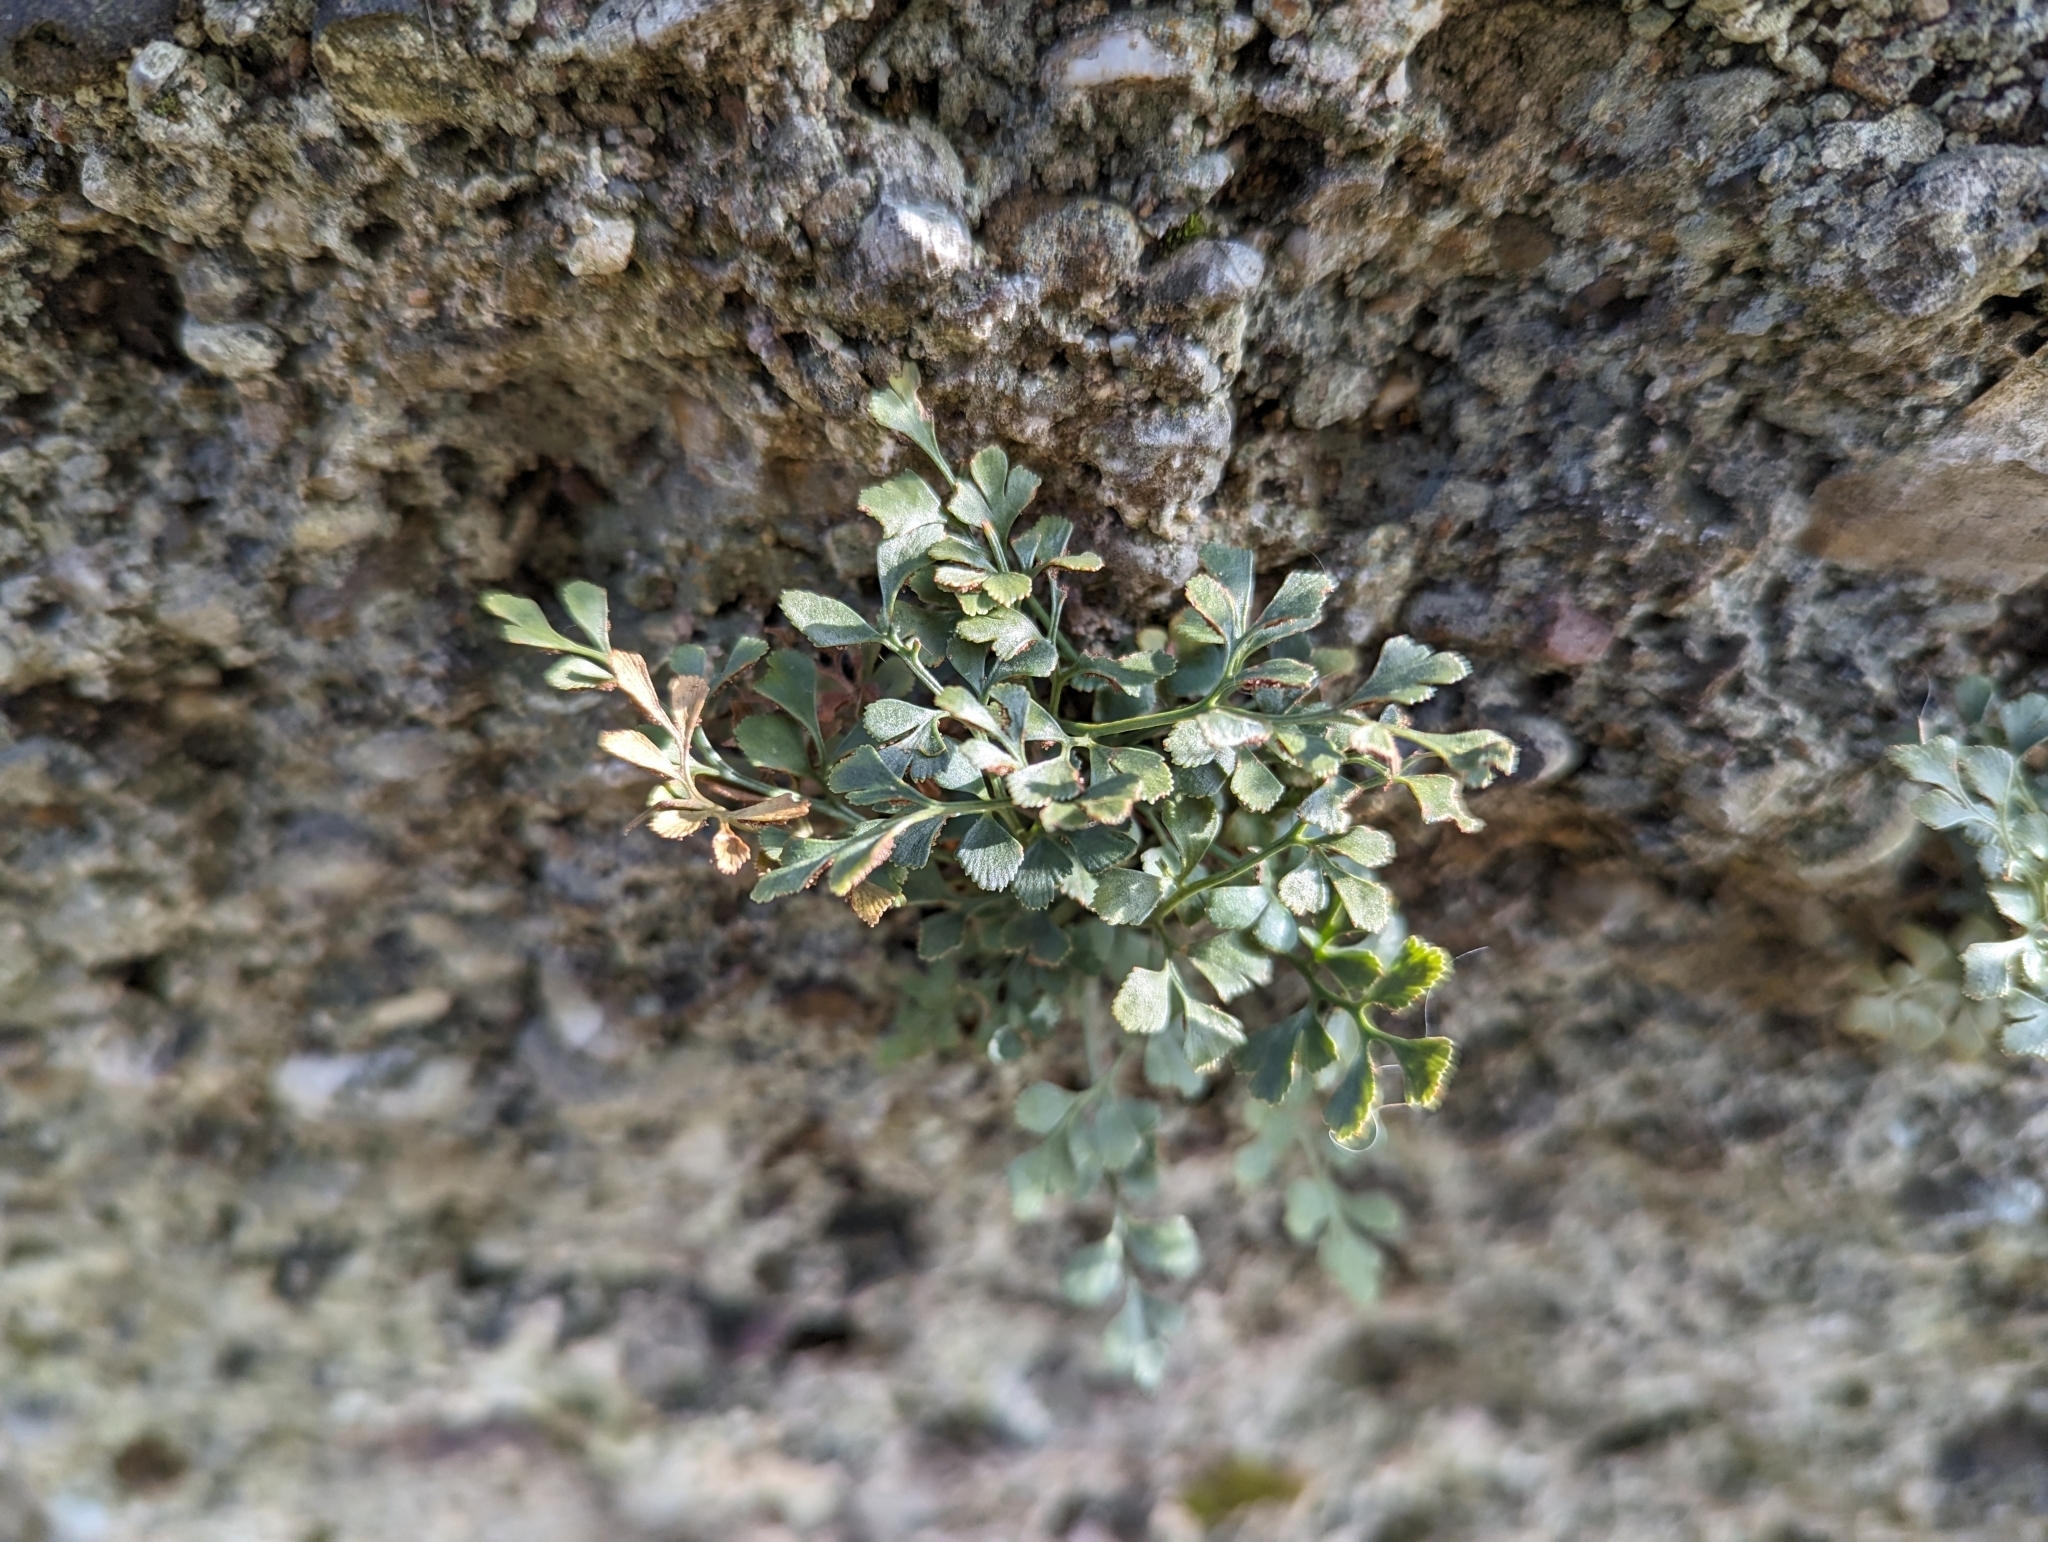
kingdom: Plantae
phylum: Tracheophyta
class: Polypodiopsida
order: Polypodiales
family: Aspleniaceae
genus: Asplenium
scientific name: Asplenium ruta-muraria
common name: Wall-rue
